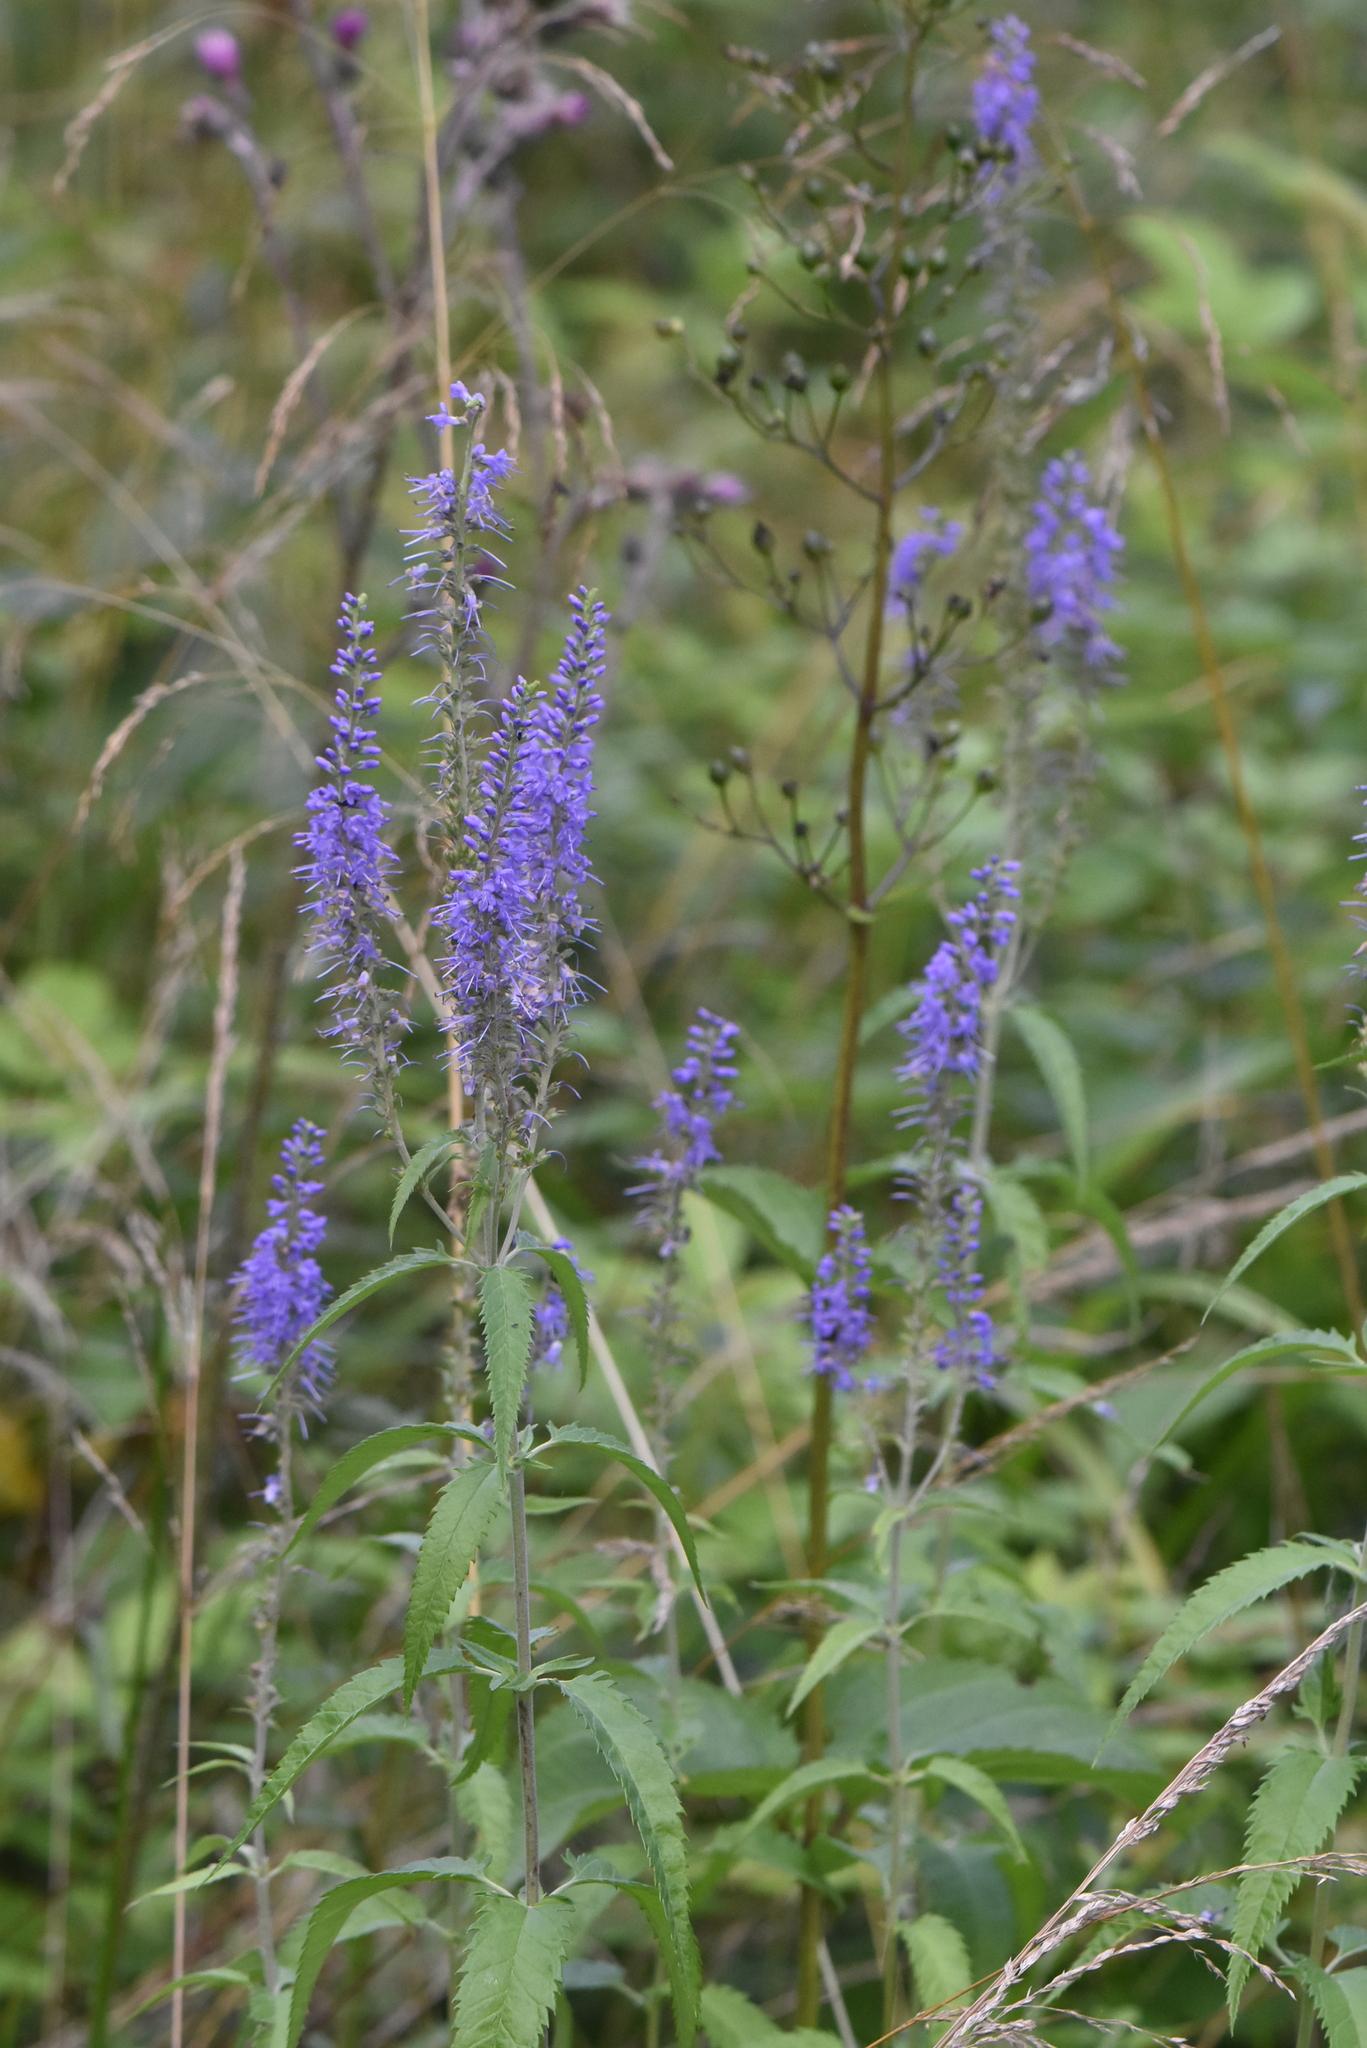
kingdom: Plantae
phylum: Tracheophyta
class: Magnoliopsida
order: Lamiales
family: Plantaginaceae
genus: Veronica
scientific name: Veronica longifolia
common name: Garden speedwell
